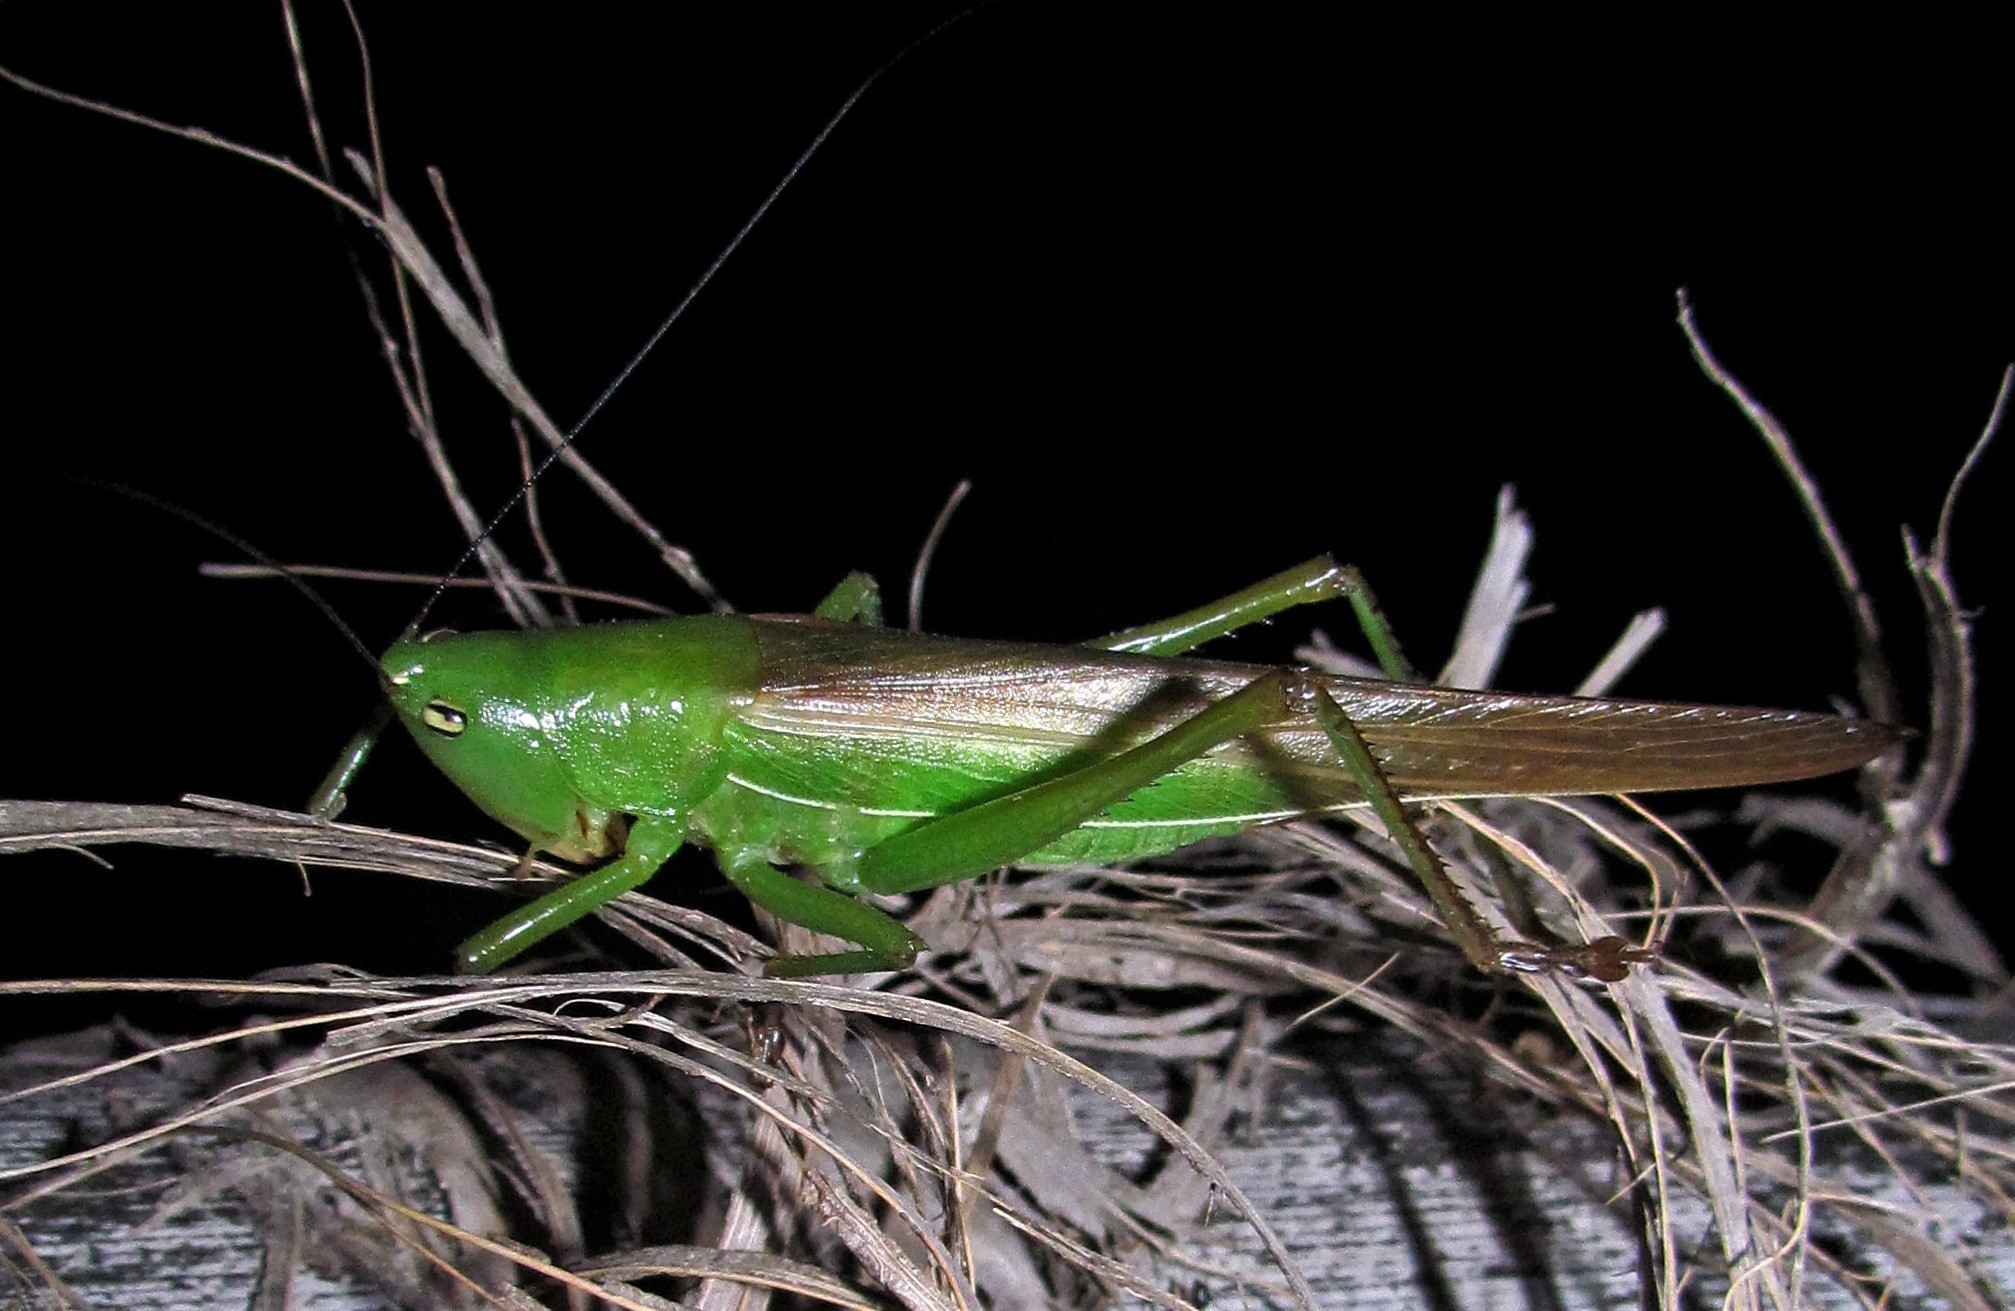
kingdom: Animalia
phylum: Arthropoda
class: Insecta
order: Orthoptera
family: Tettigoniidae
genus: Bucrates
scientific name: Bucrates lanista
